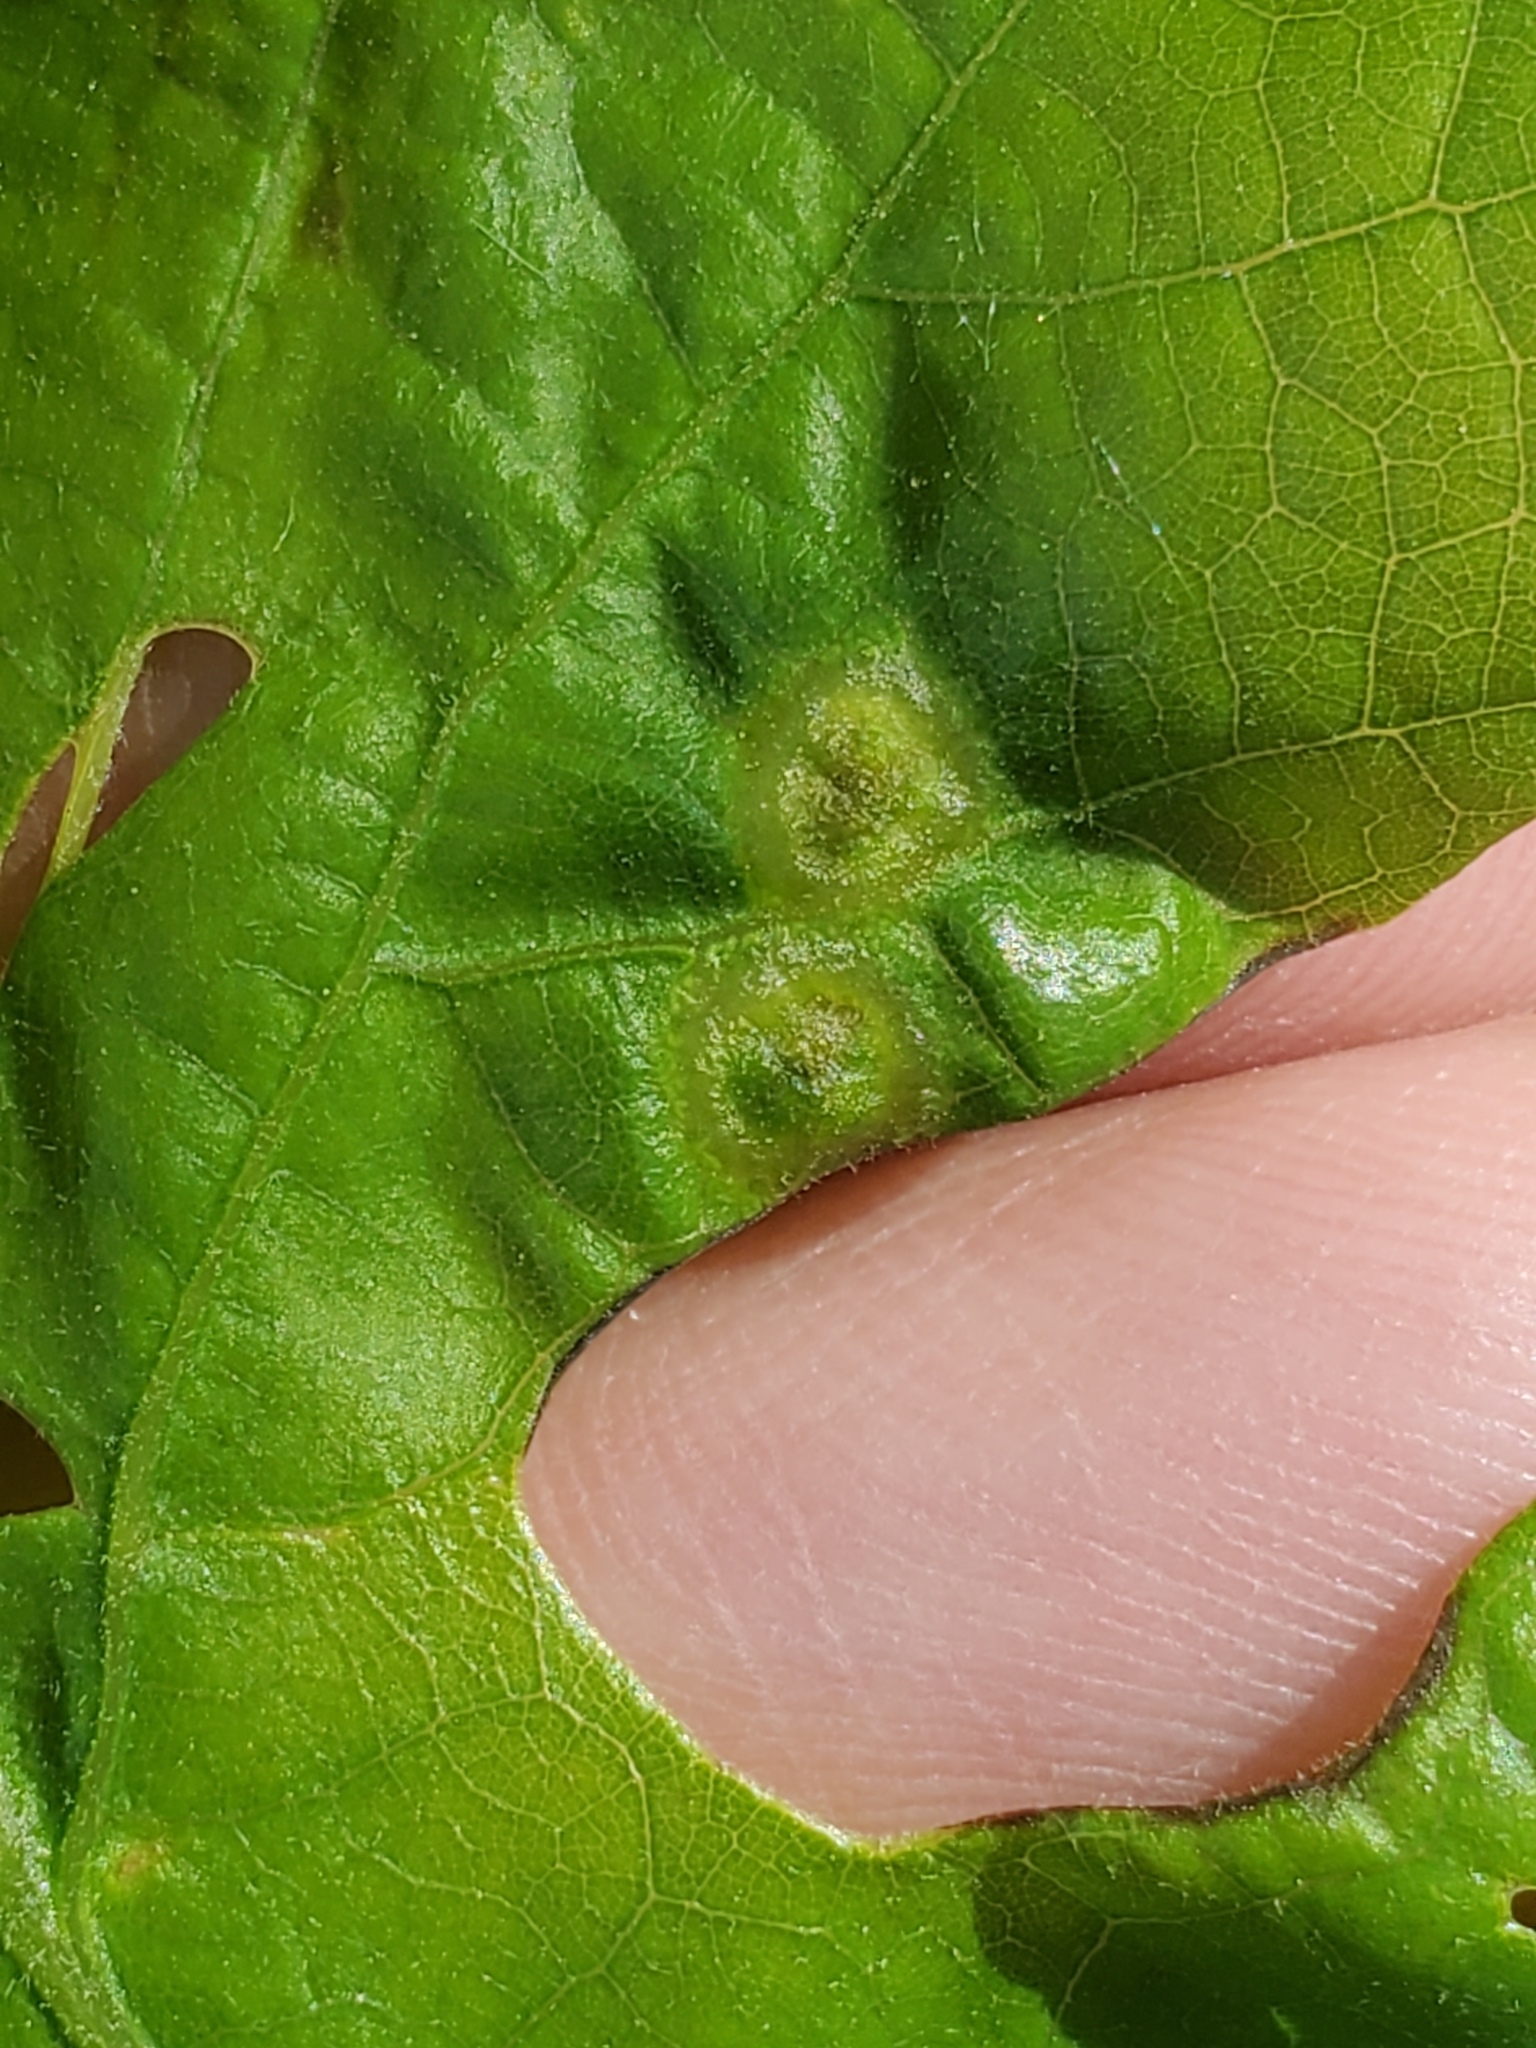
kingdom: Animalia
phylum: Arthropoda
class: Insecta
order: Hymenoptera
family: Cynipidae
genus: Callirhytis
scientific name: Callirhytis
